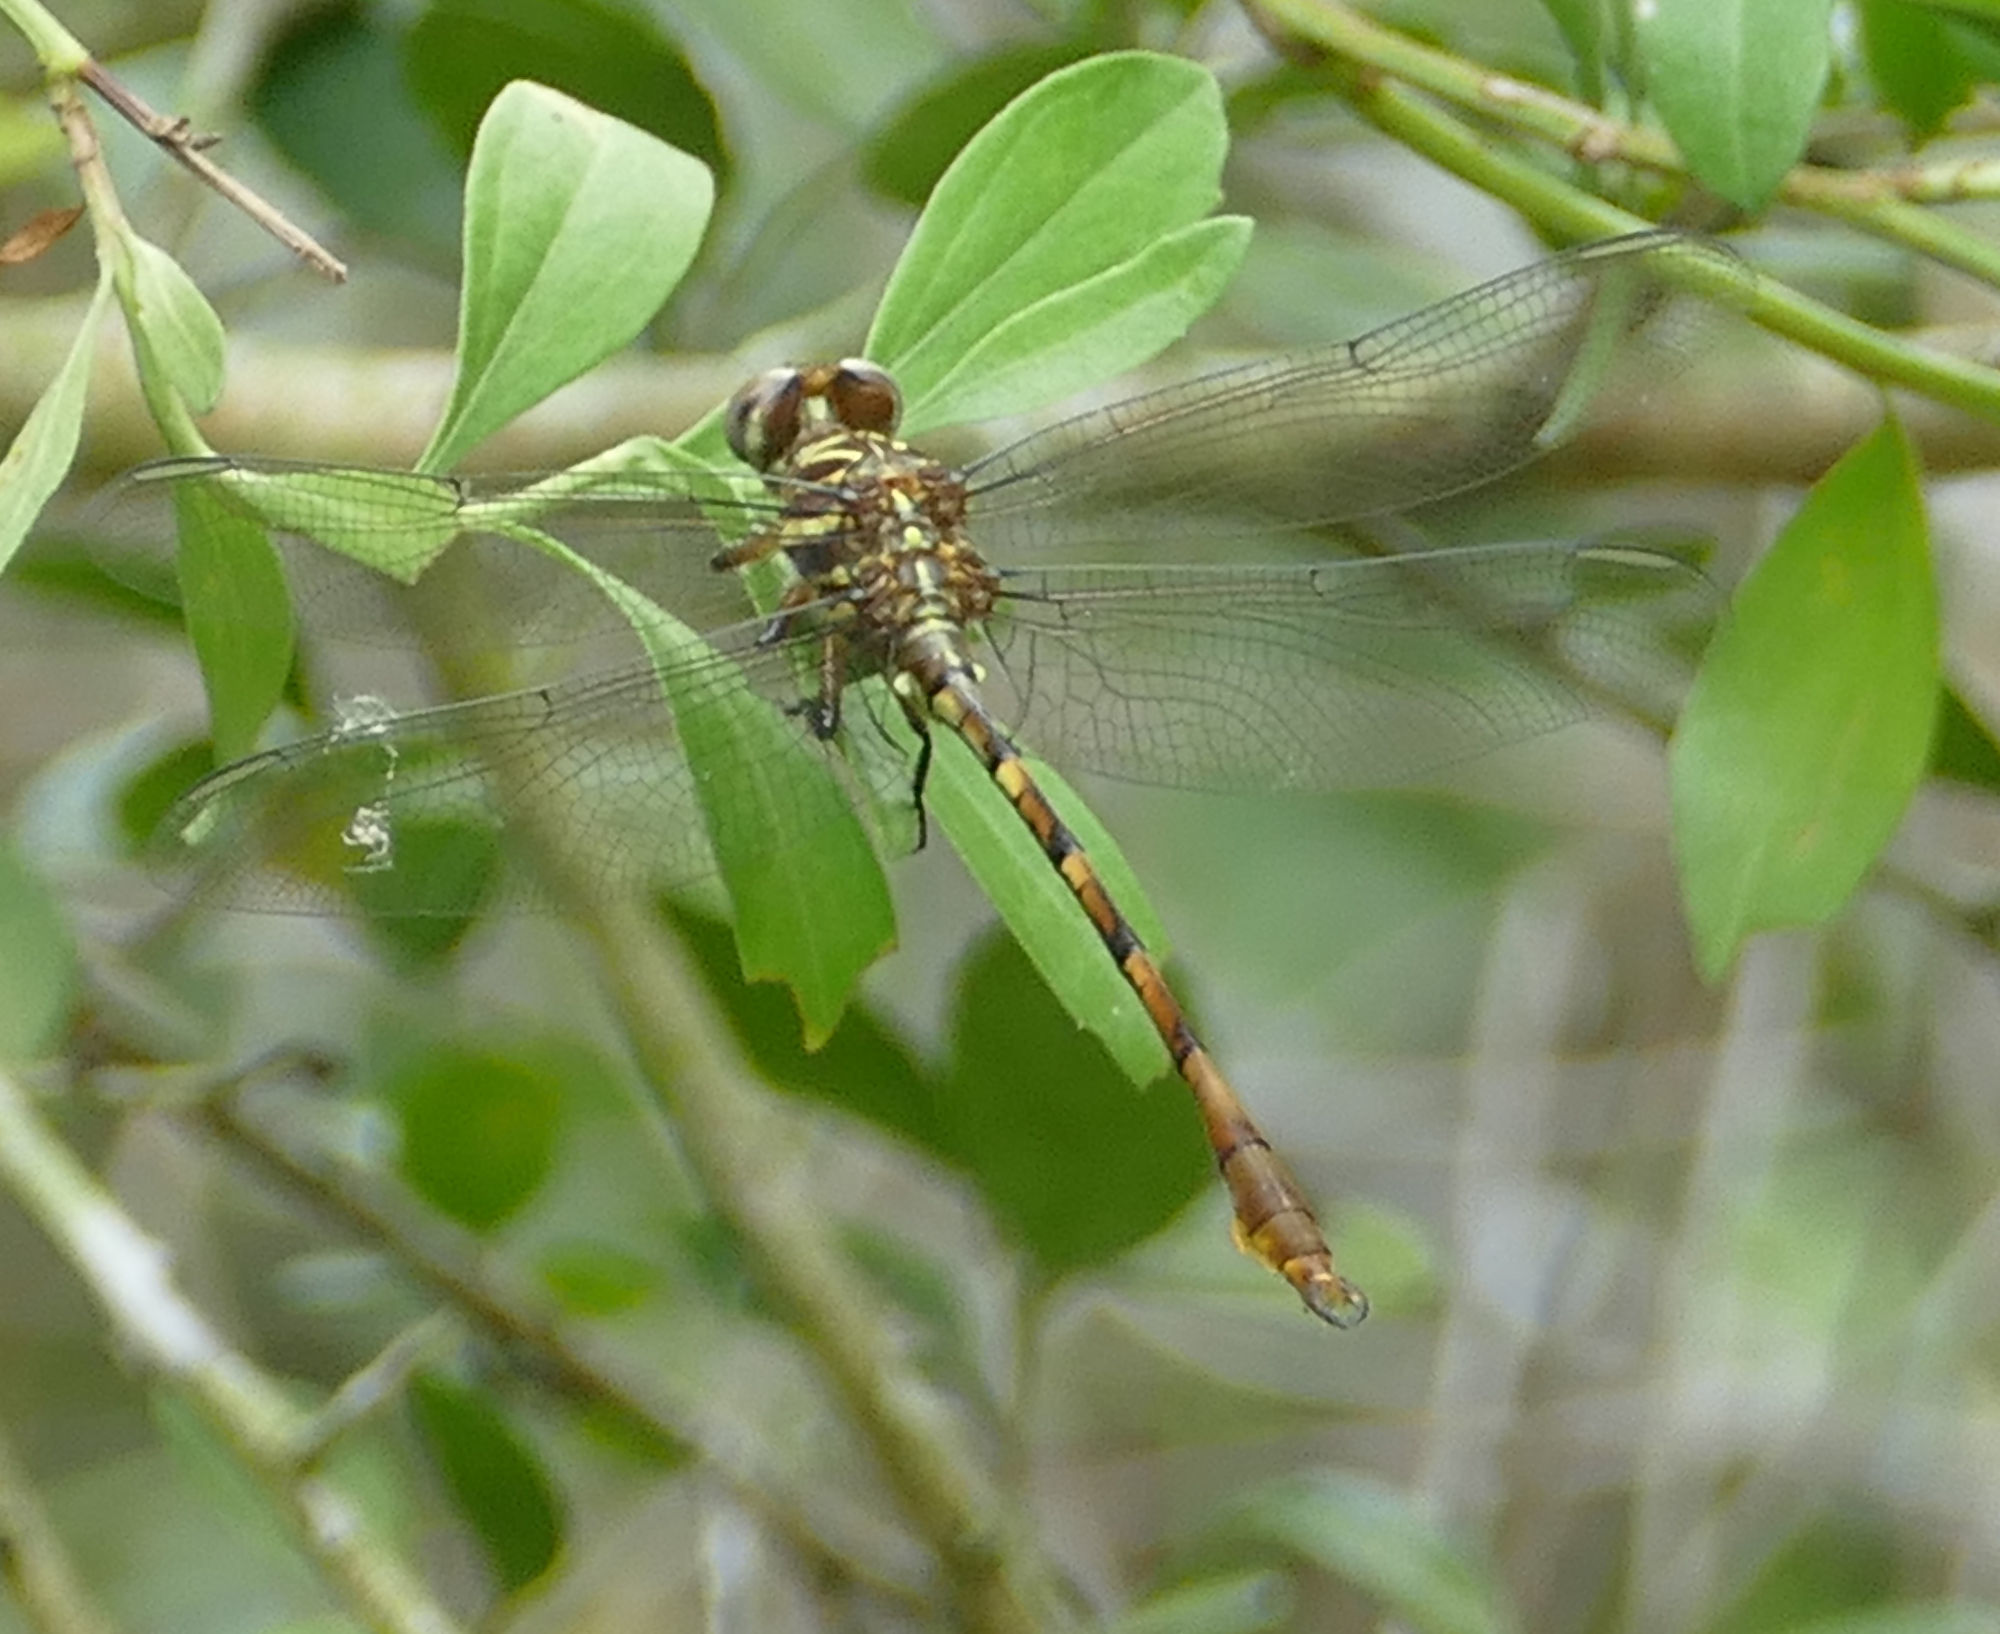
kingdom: Animalia
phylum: Arthropoda
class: Insecta
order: Odonata
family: Gomphidae
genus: Aphylla
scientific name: Aphylla angustifolia
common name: Broad-striped forceptail
